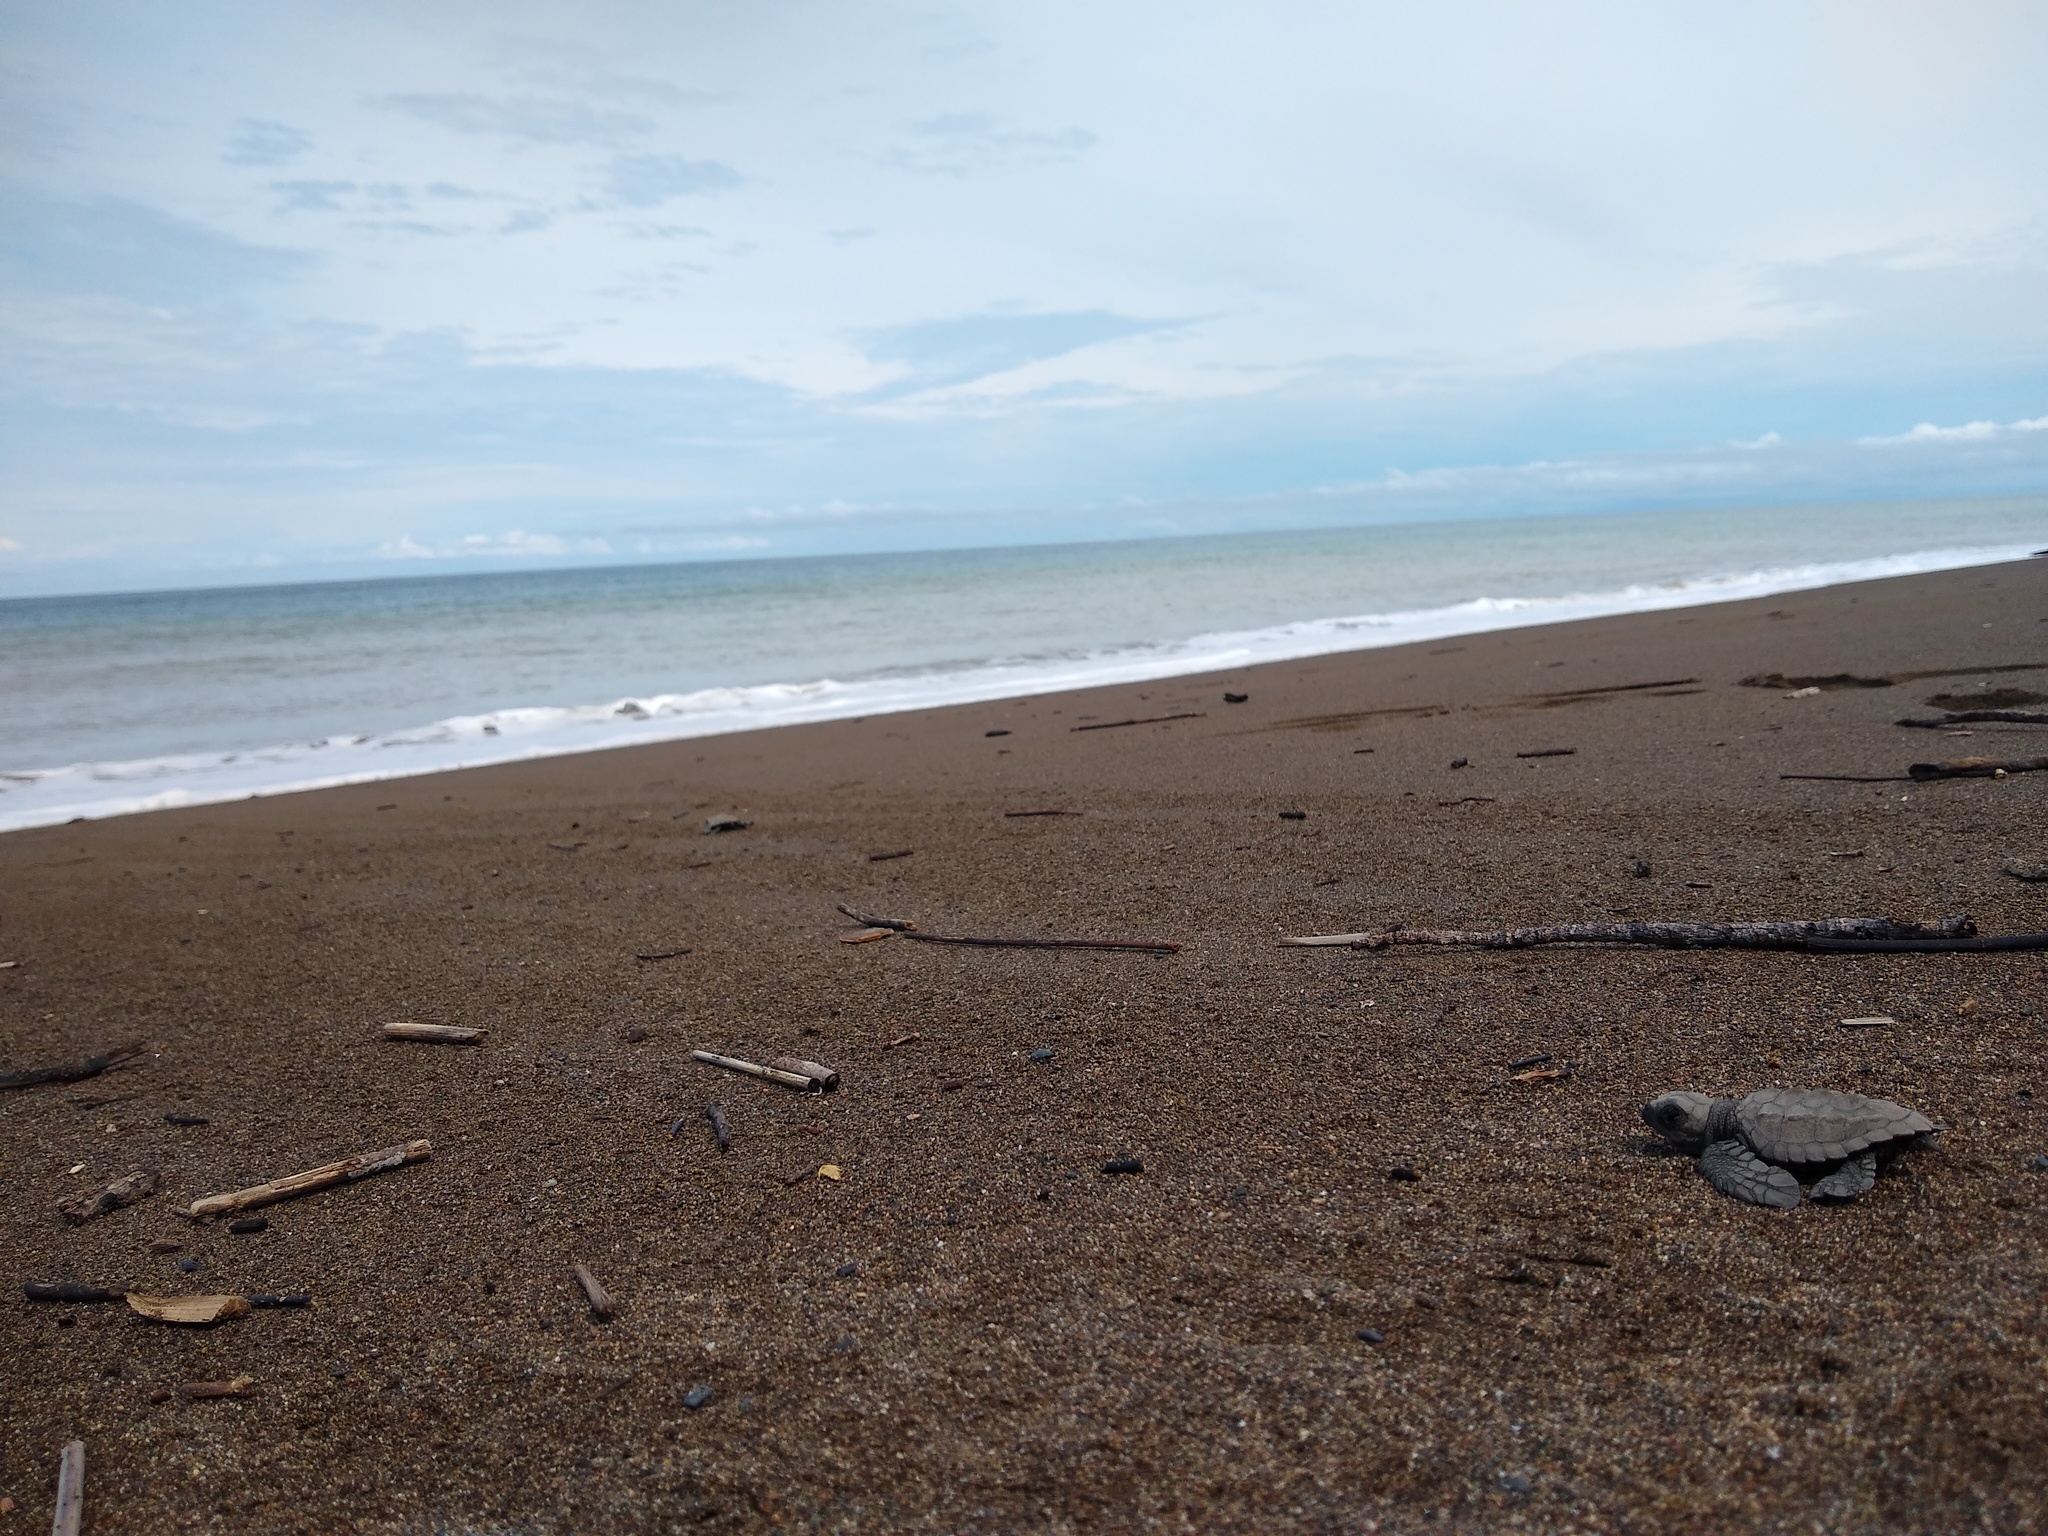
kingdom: Animalia
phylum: Chordata
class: Testudines
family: Cheloniidae
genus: Lepidochelys
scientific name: Lepidochelys olivacea
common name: Olive ridley
